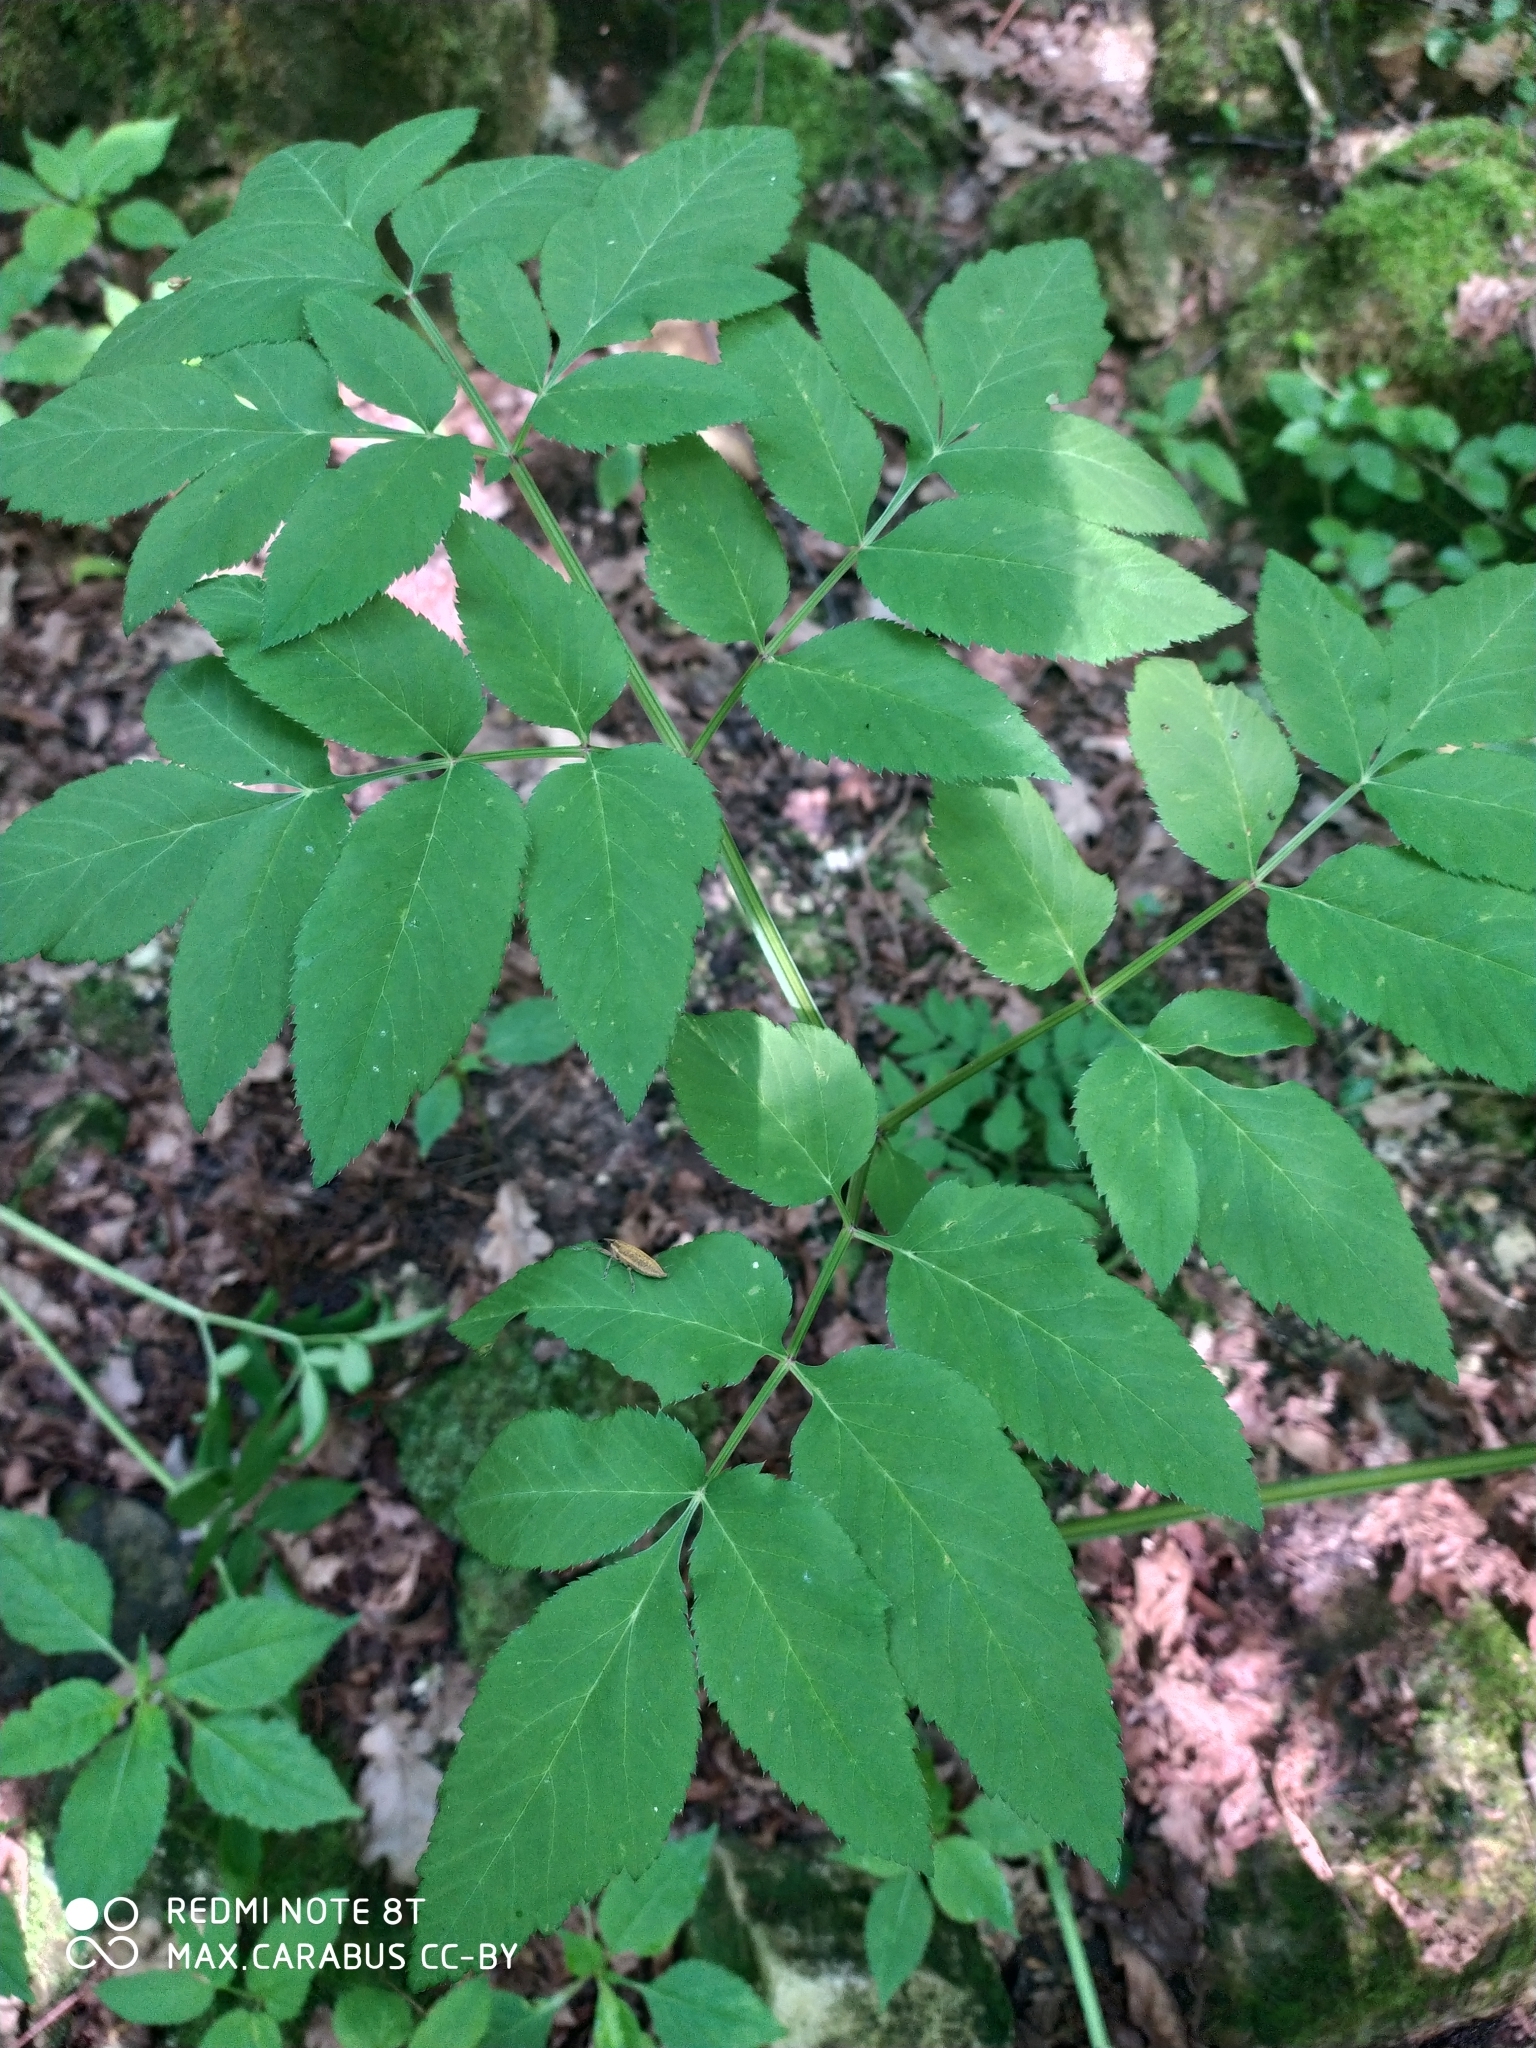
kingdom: Plantae
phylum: Tracheophyta
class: Magnoliopsida
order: Apiales
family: Apiaceae
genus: Angelica
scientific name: Angelica sylvestris
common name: Wild angelica
